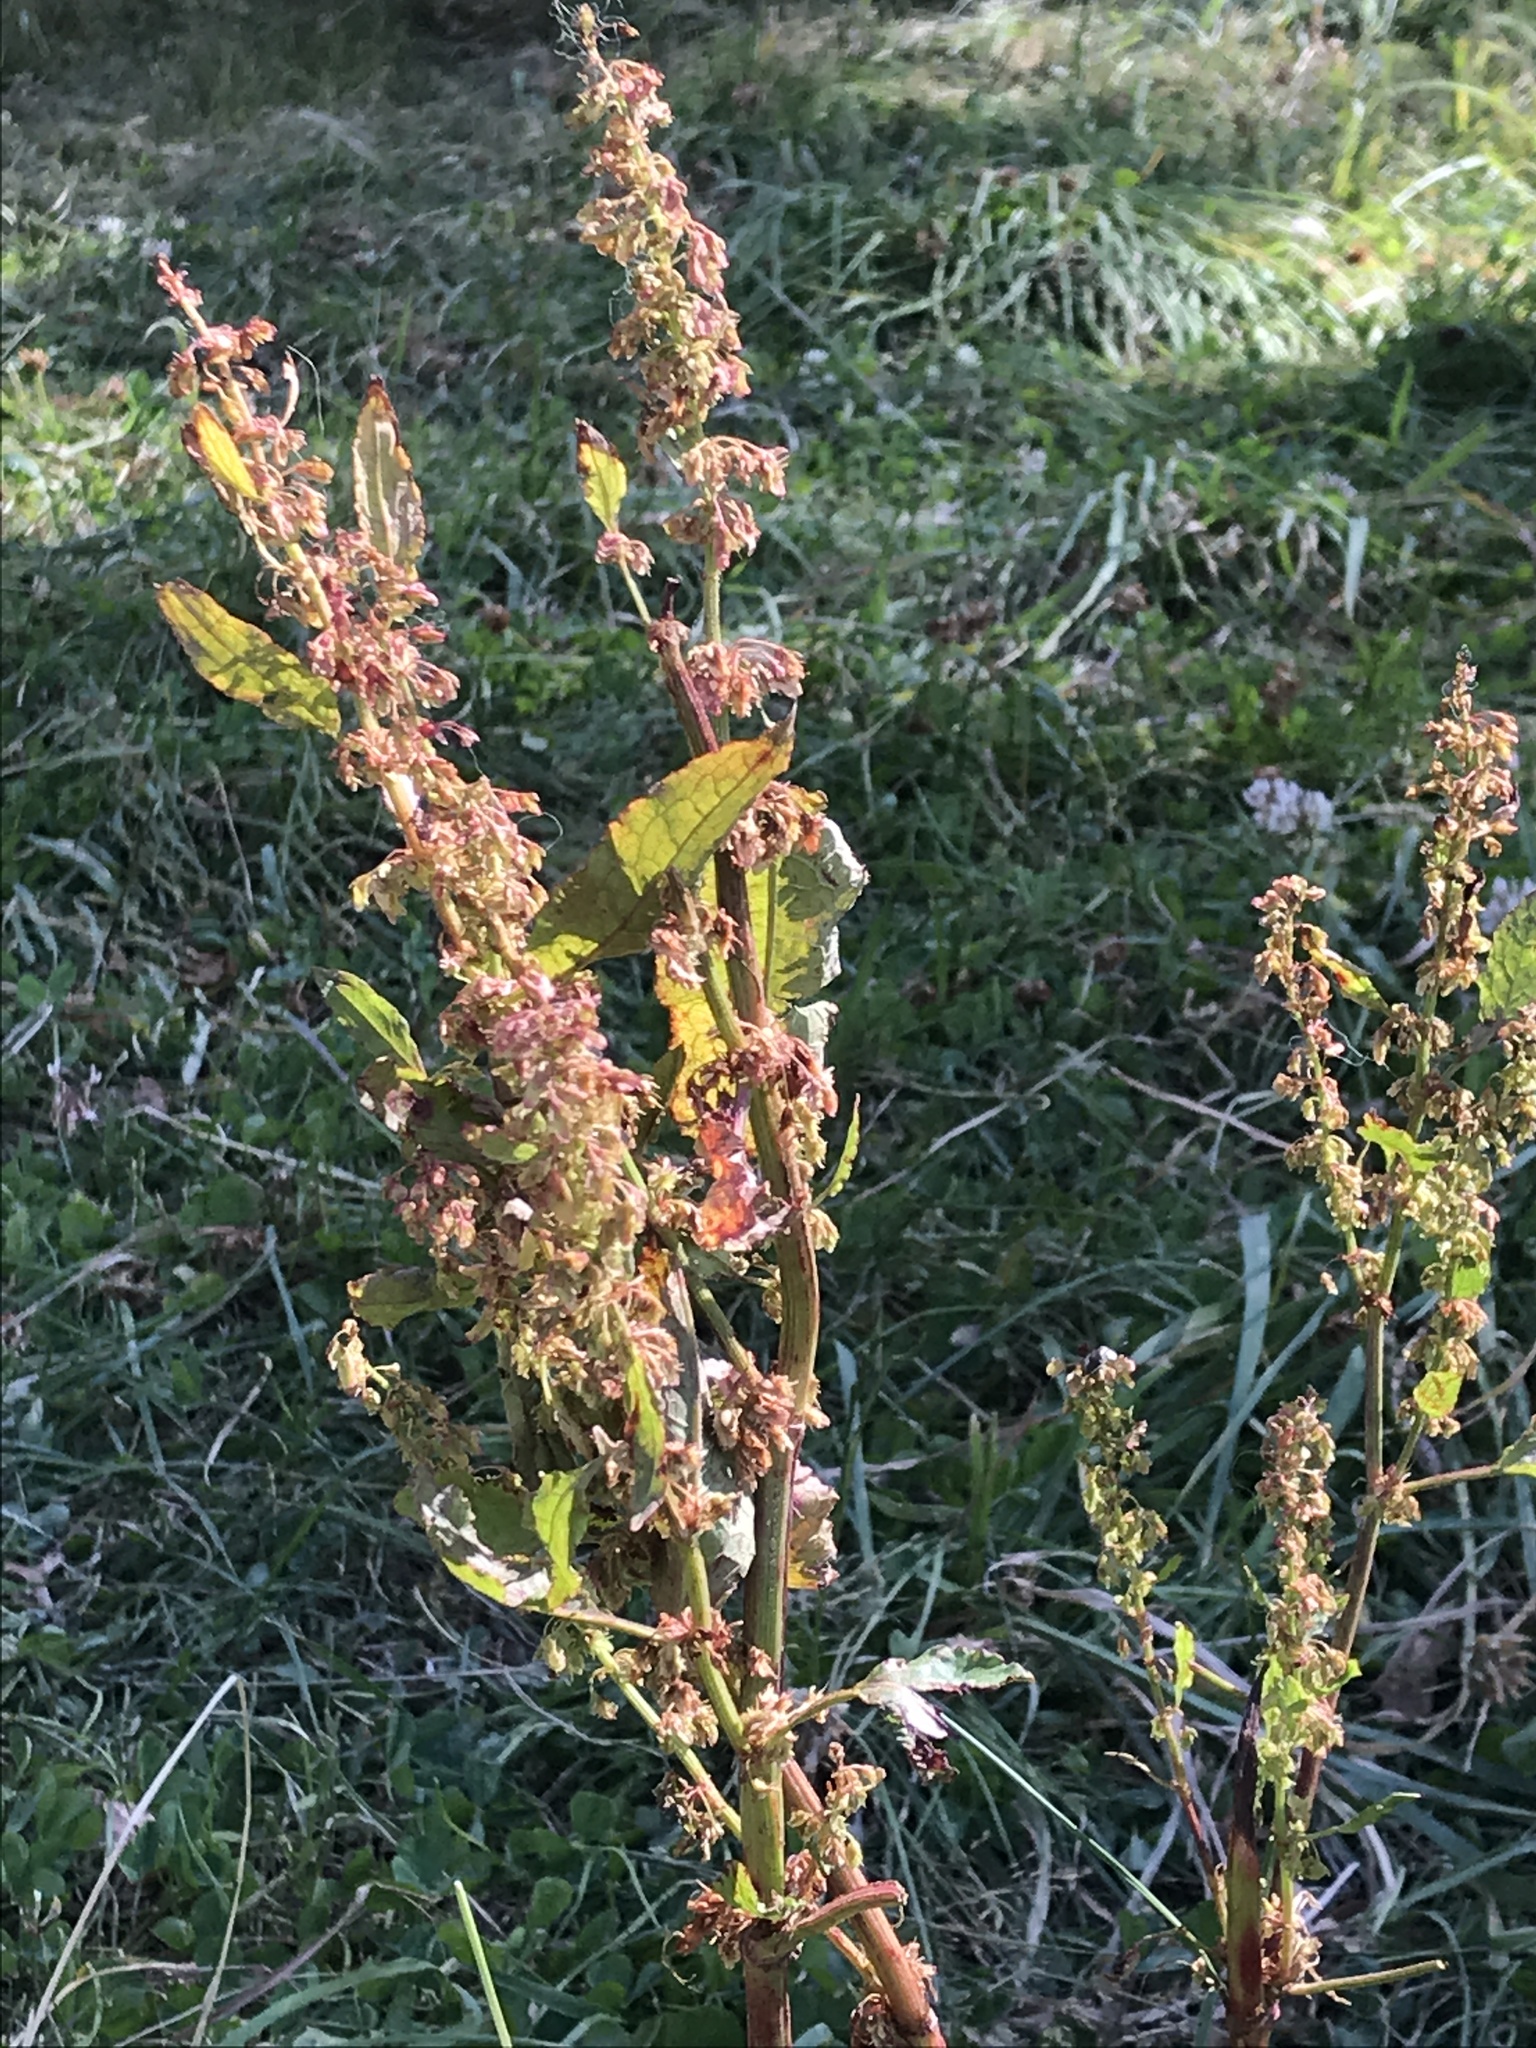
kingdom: Plantae
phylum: Tracheophyta
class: Magnoliopsida
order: Caryophyllales
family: Polygonaceae
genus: Rumex
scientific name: Rumex obtusifolius
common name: Bitter dock
